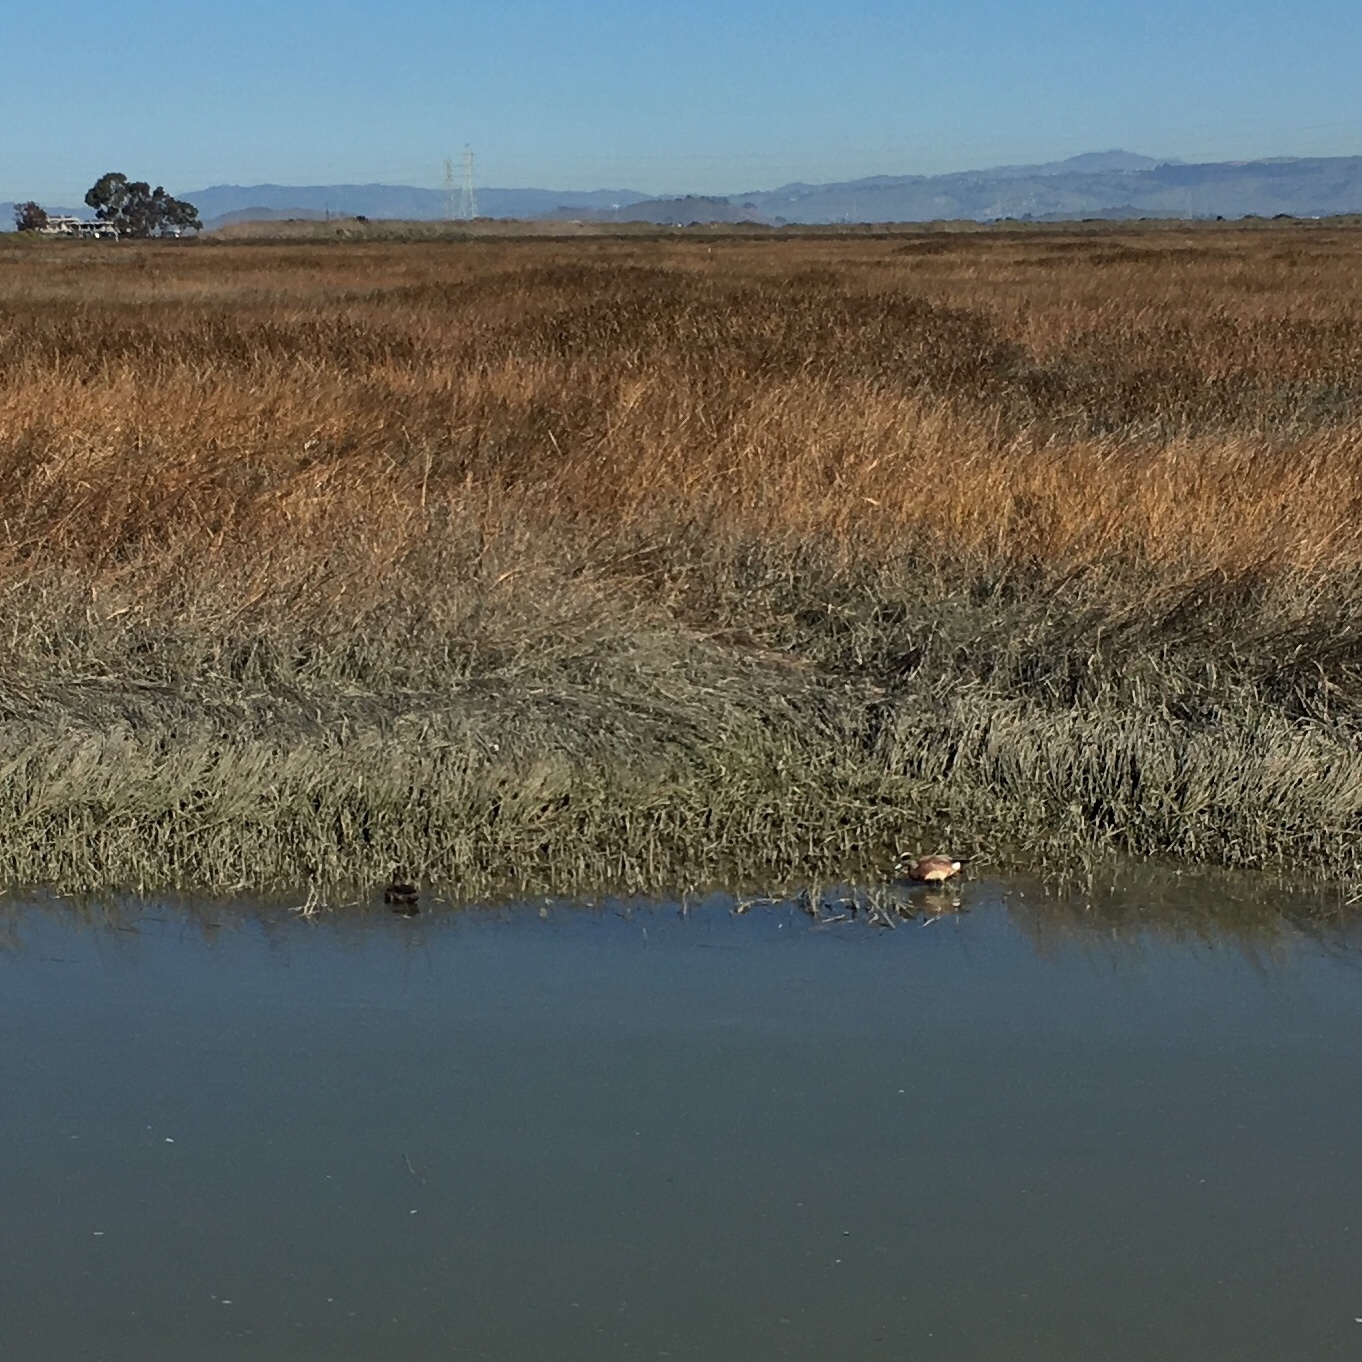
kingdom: Animalia
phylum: Chordata
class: Aves
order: Anseriformes
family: Anatidae
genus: Mareca
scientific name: Mareca americana
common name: American wigeon
